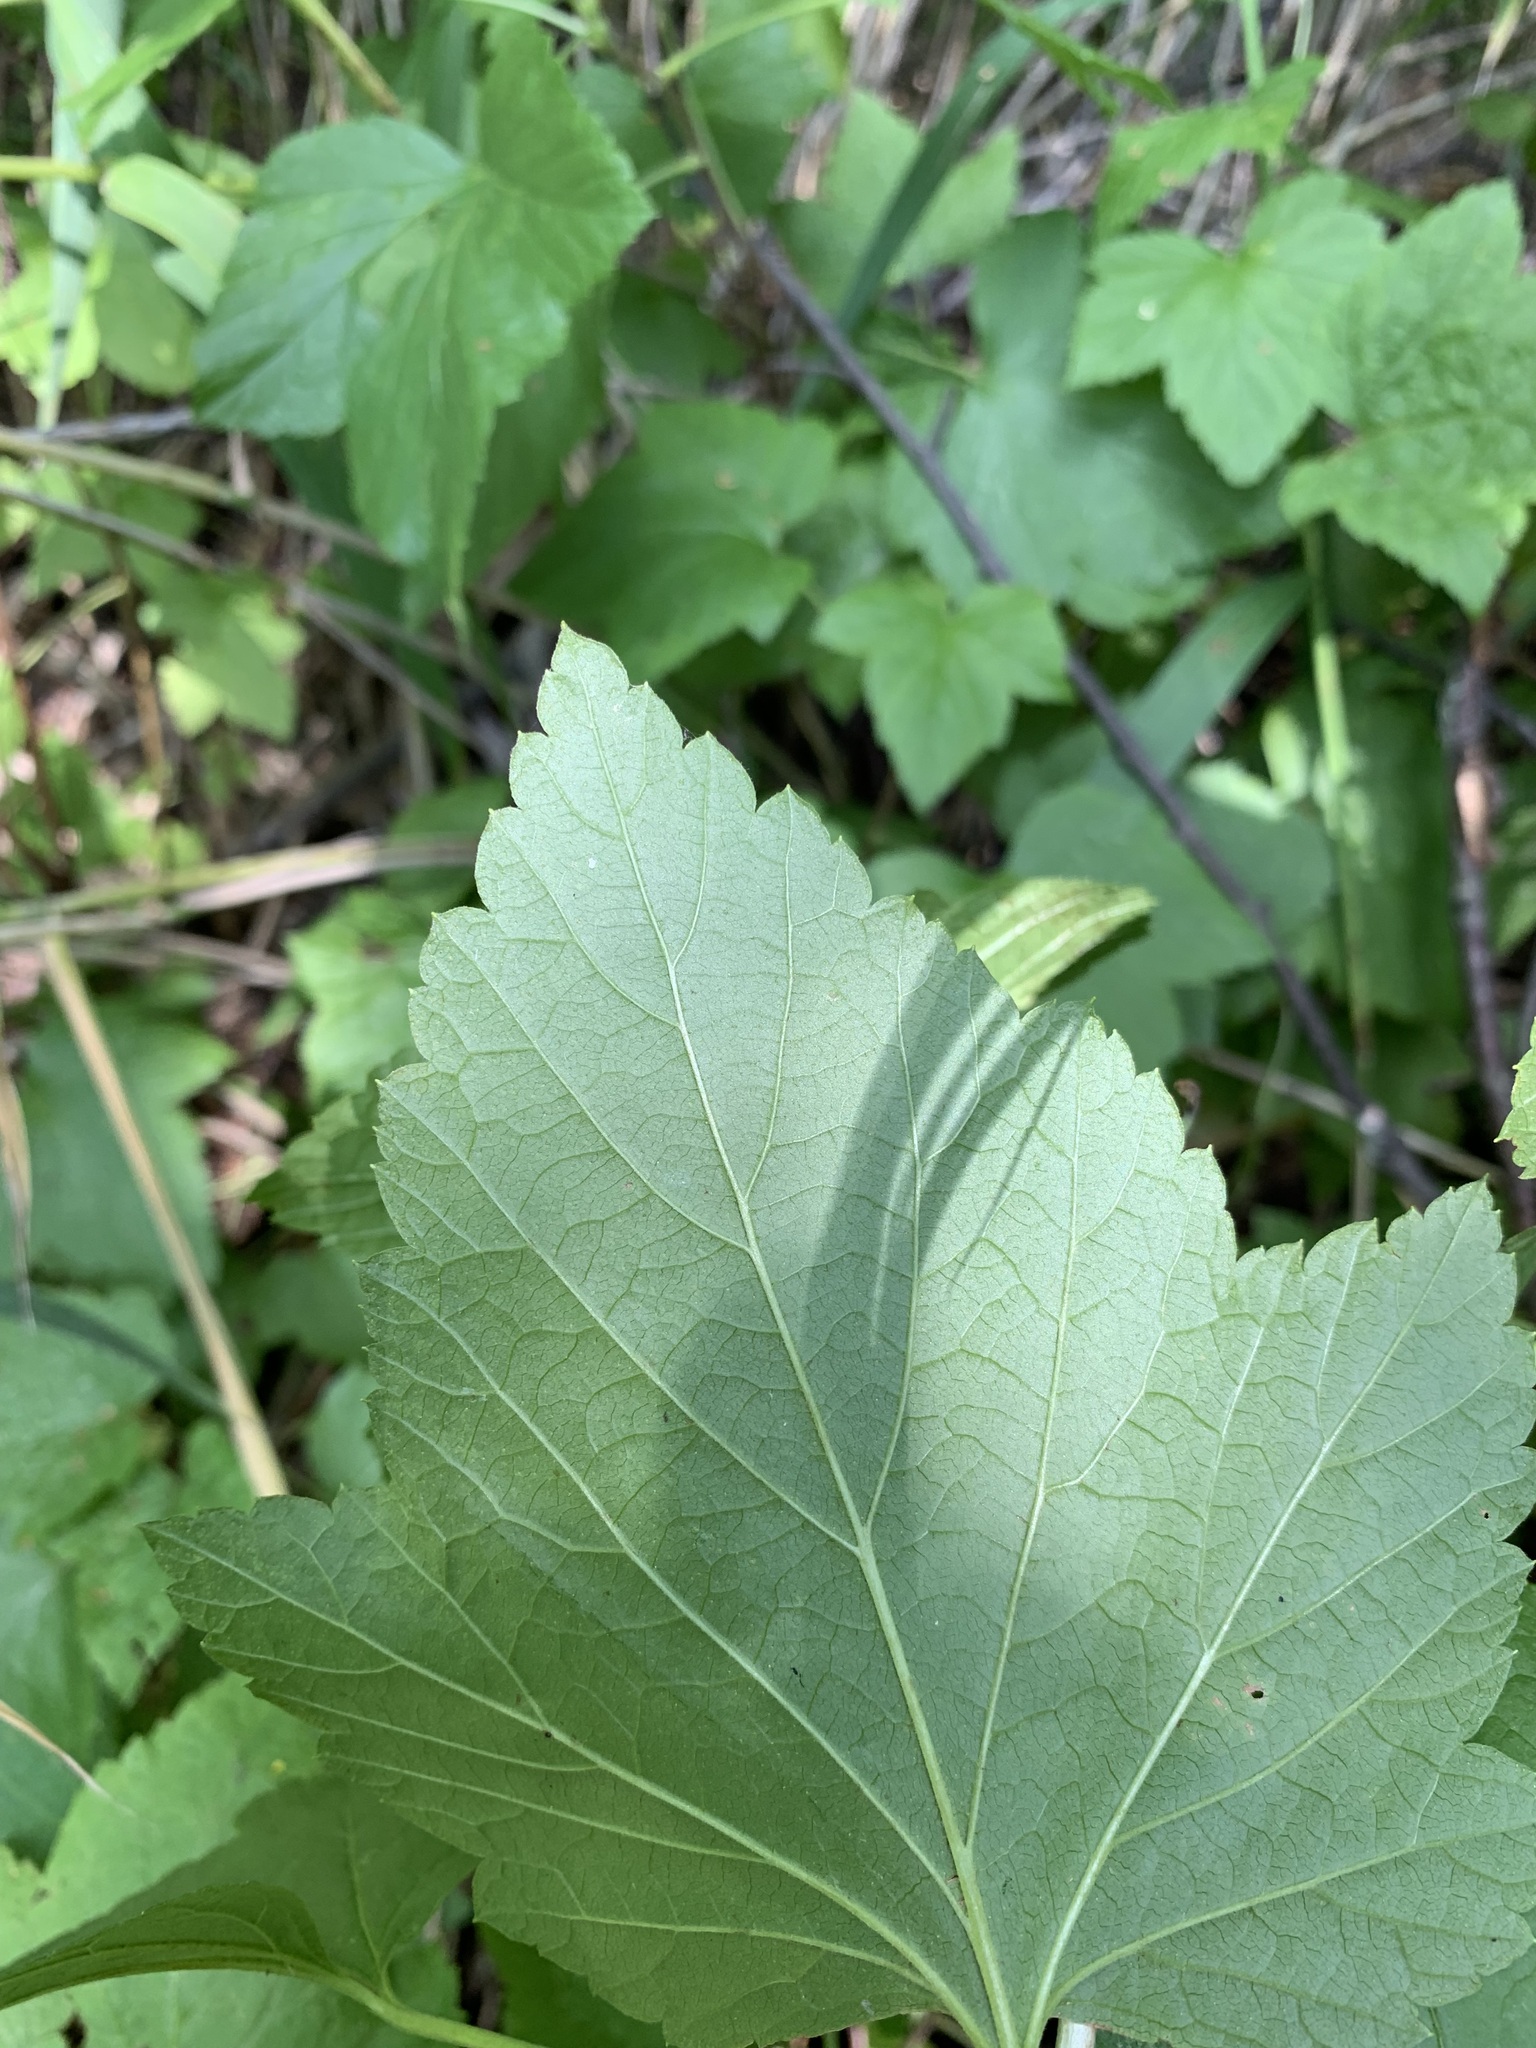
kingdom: Plantae
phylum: Tracheophyta
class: Magnoliopsida
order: Saxifragales
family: Grossulariaceae
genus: Ribes
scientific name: Ribes nigrum
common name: Black currant
